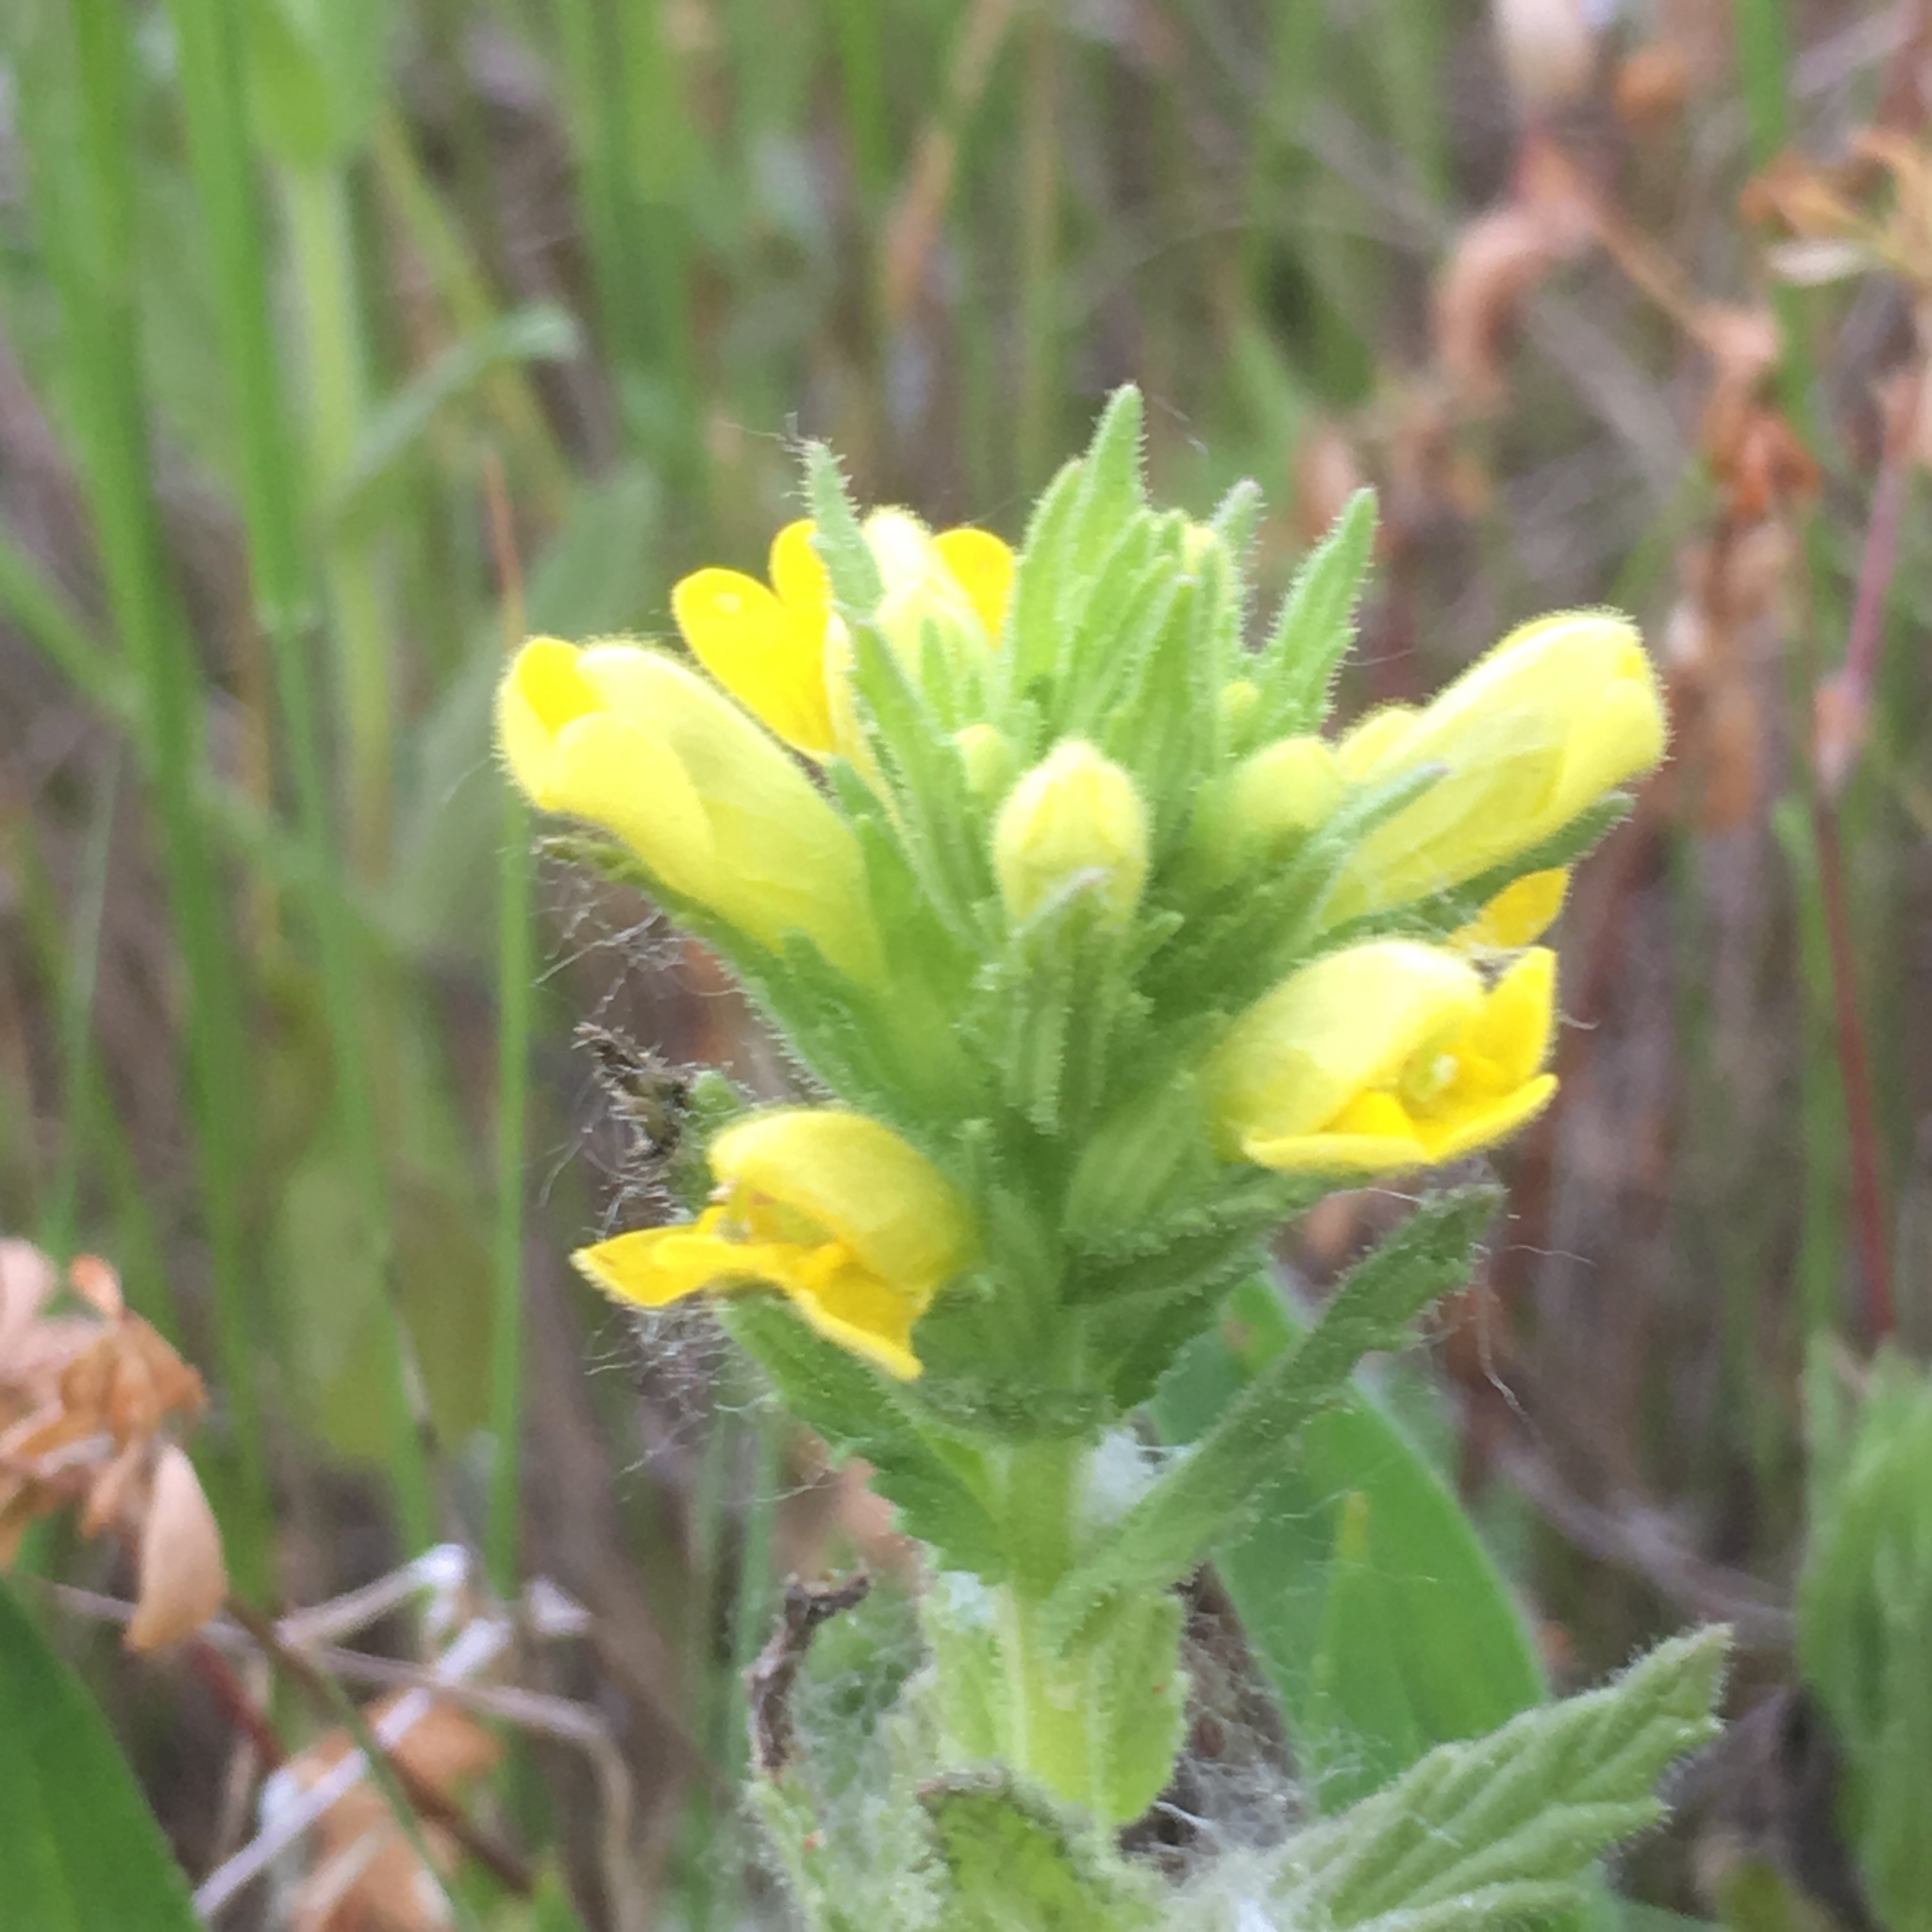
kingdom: Plantae
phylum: Tracheophyta
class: Magnoliopsida
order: Lamiales
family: Orobanchaceae
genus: Bellardia
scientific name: Bellardia viscosa
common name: Sticky parentucellia
